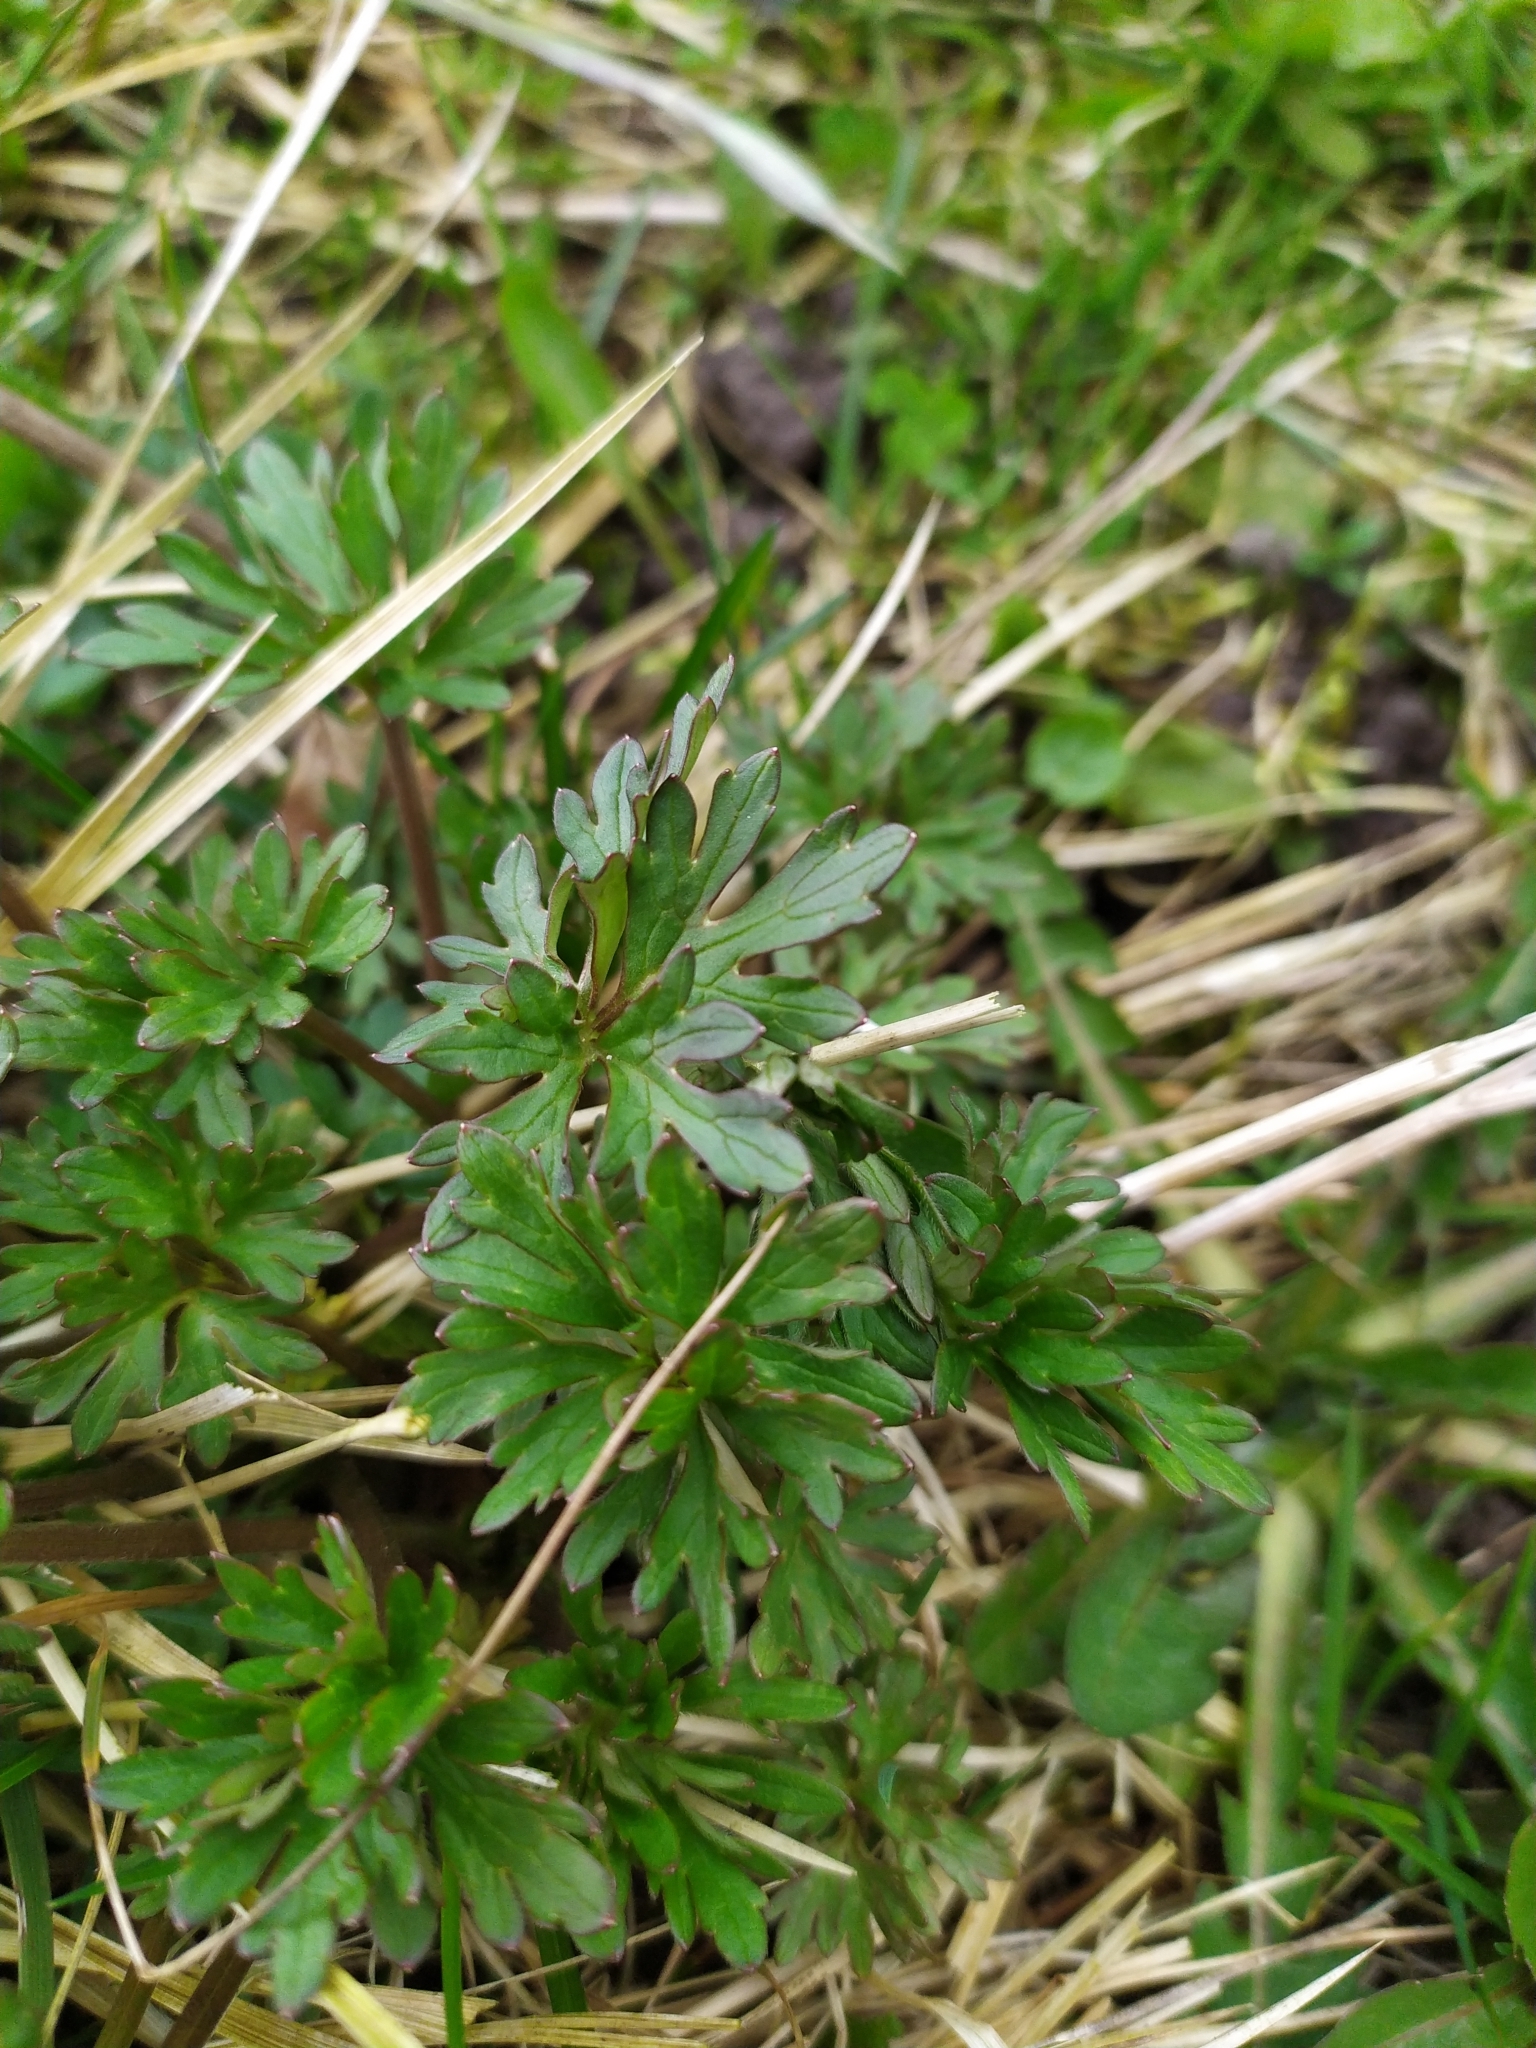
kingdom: Plantae
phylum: Tracheophyta
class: Magnoliopsida
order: Ranunculales
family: Ranunculaceae
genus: Ranunculus
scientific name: Ranunculus acris
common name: Meadow buttercup
